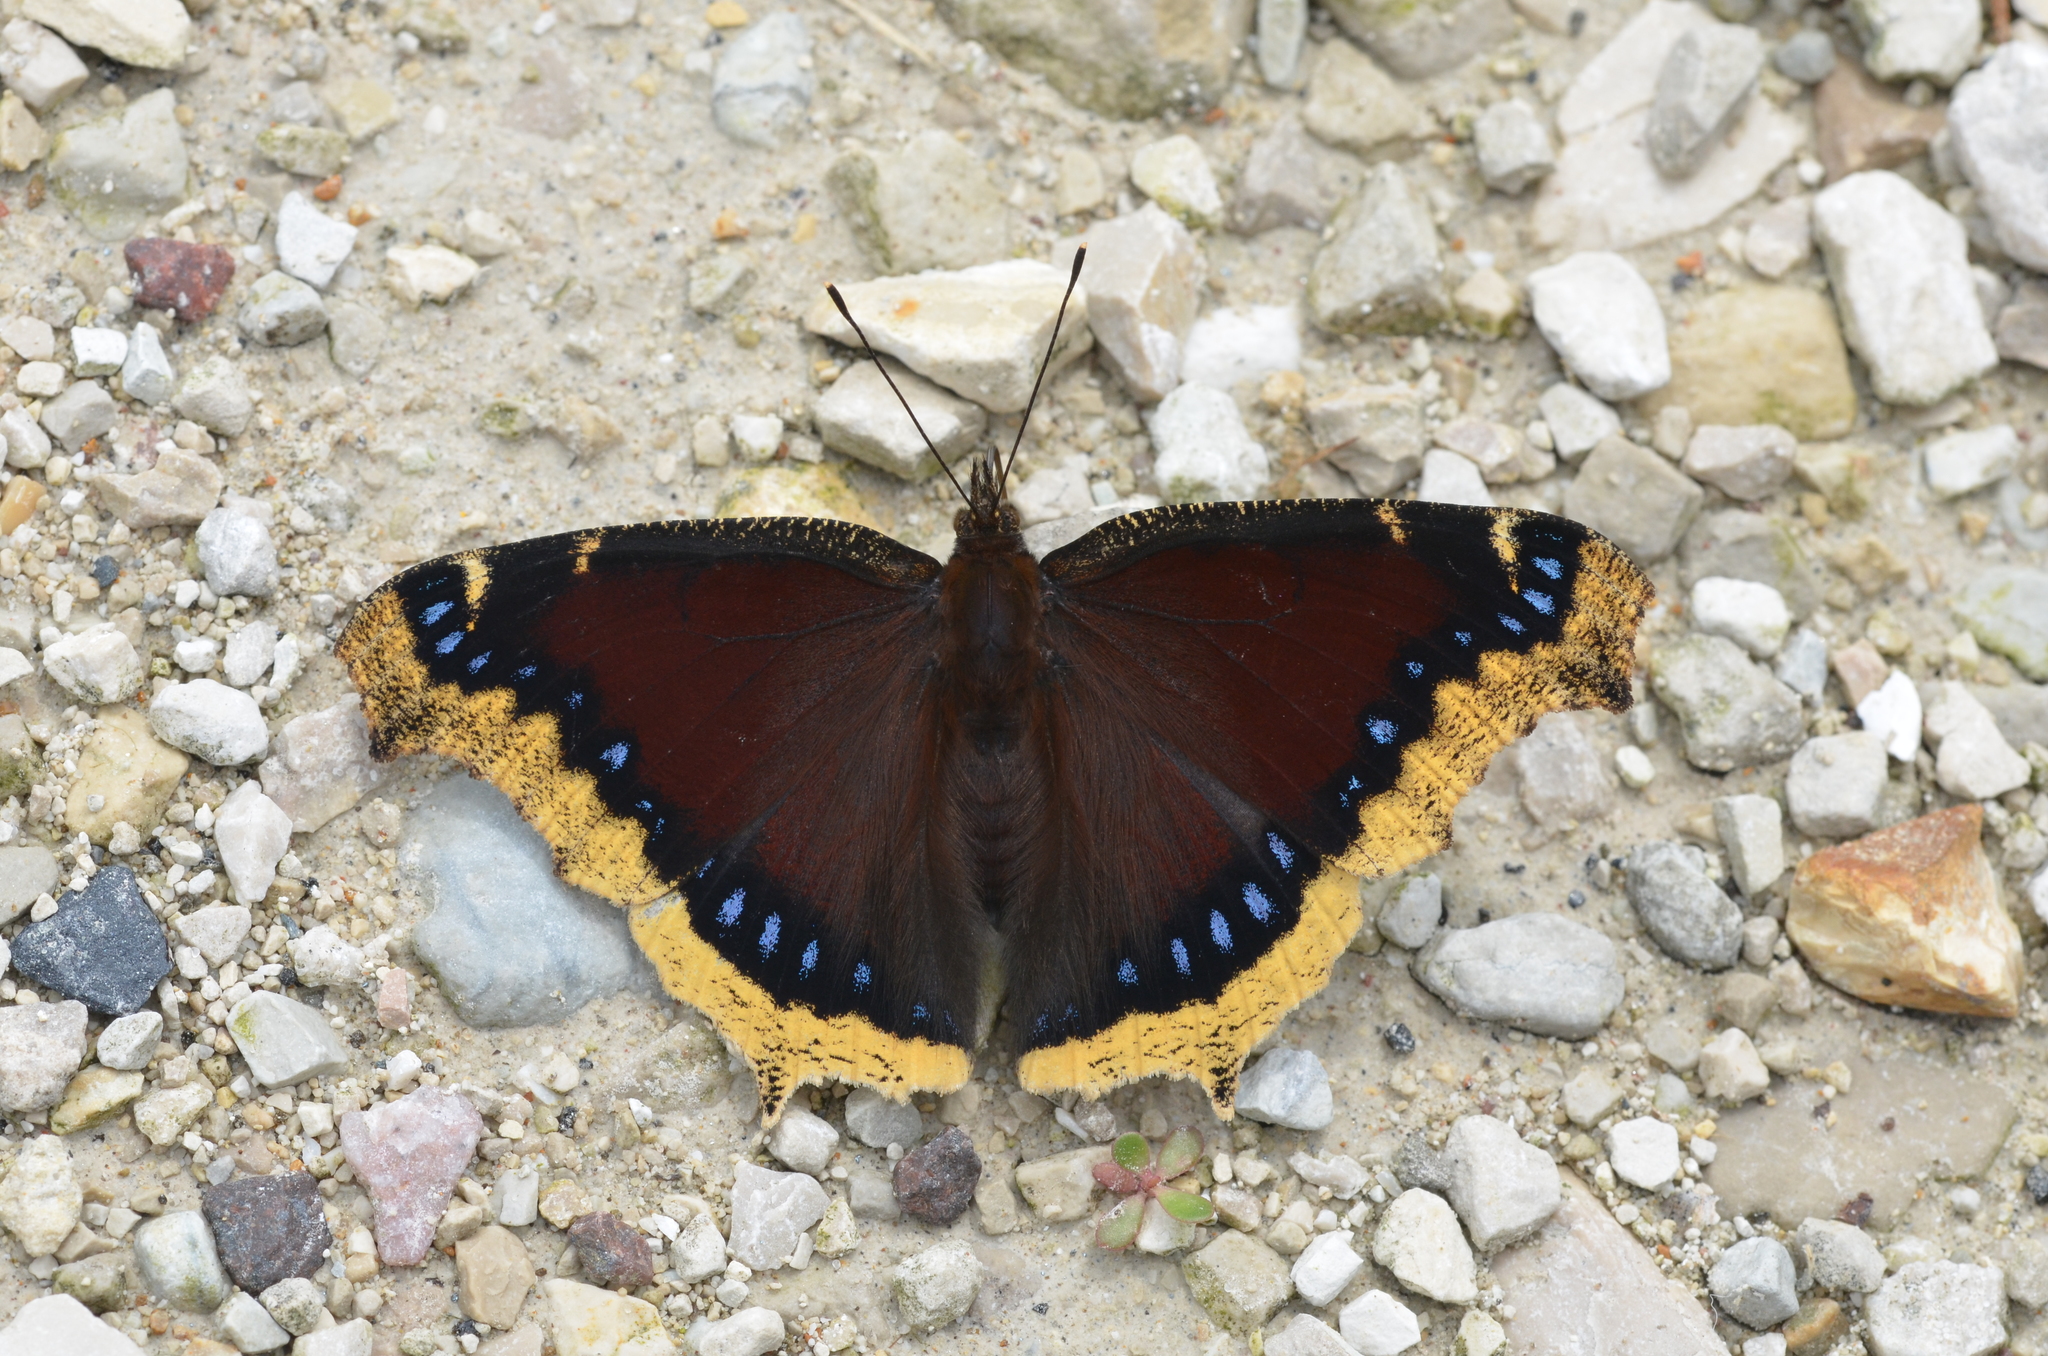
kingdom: Animalia
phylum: Arthropoda
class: Insecta
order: Lepidoptera
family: Nymphalidae
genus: Nymphalis
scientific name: Nymphalis antiopa
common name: Camberwell beauty
